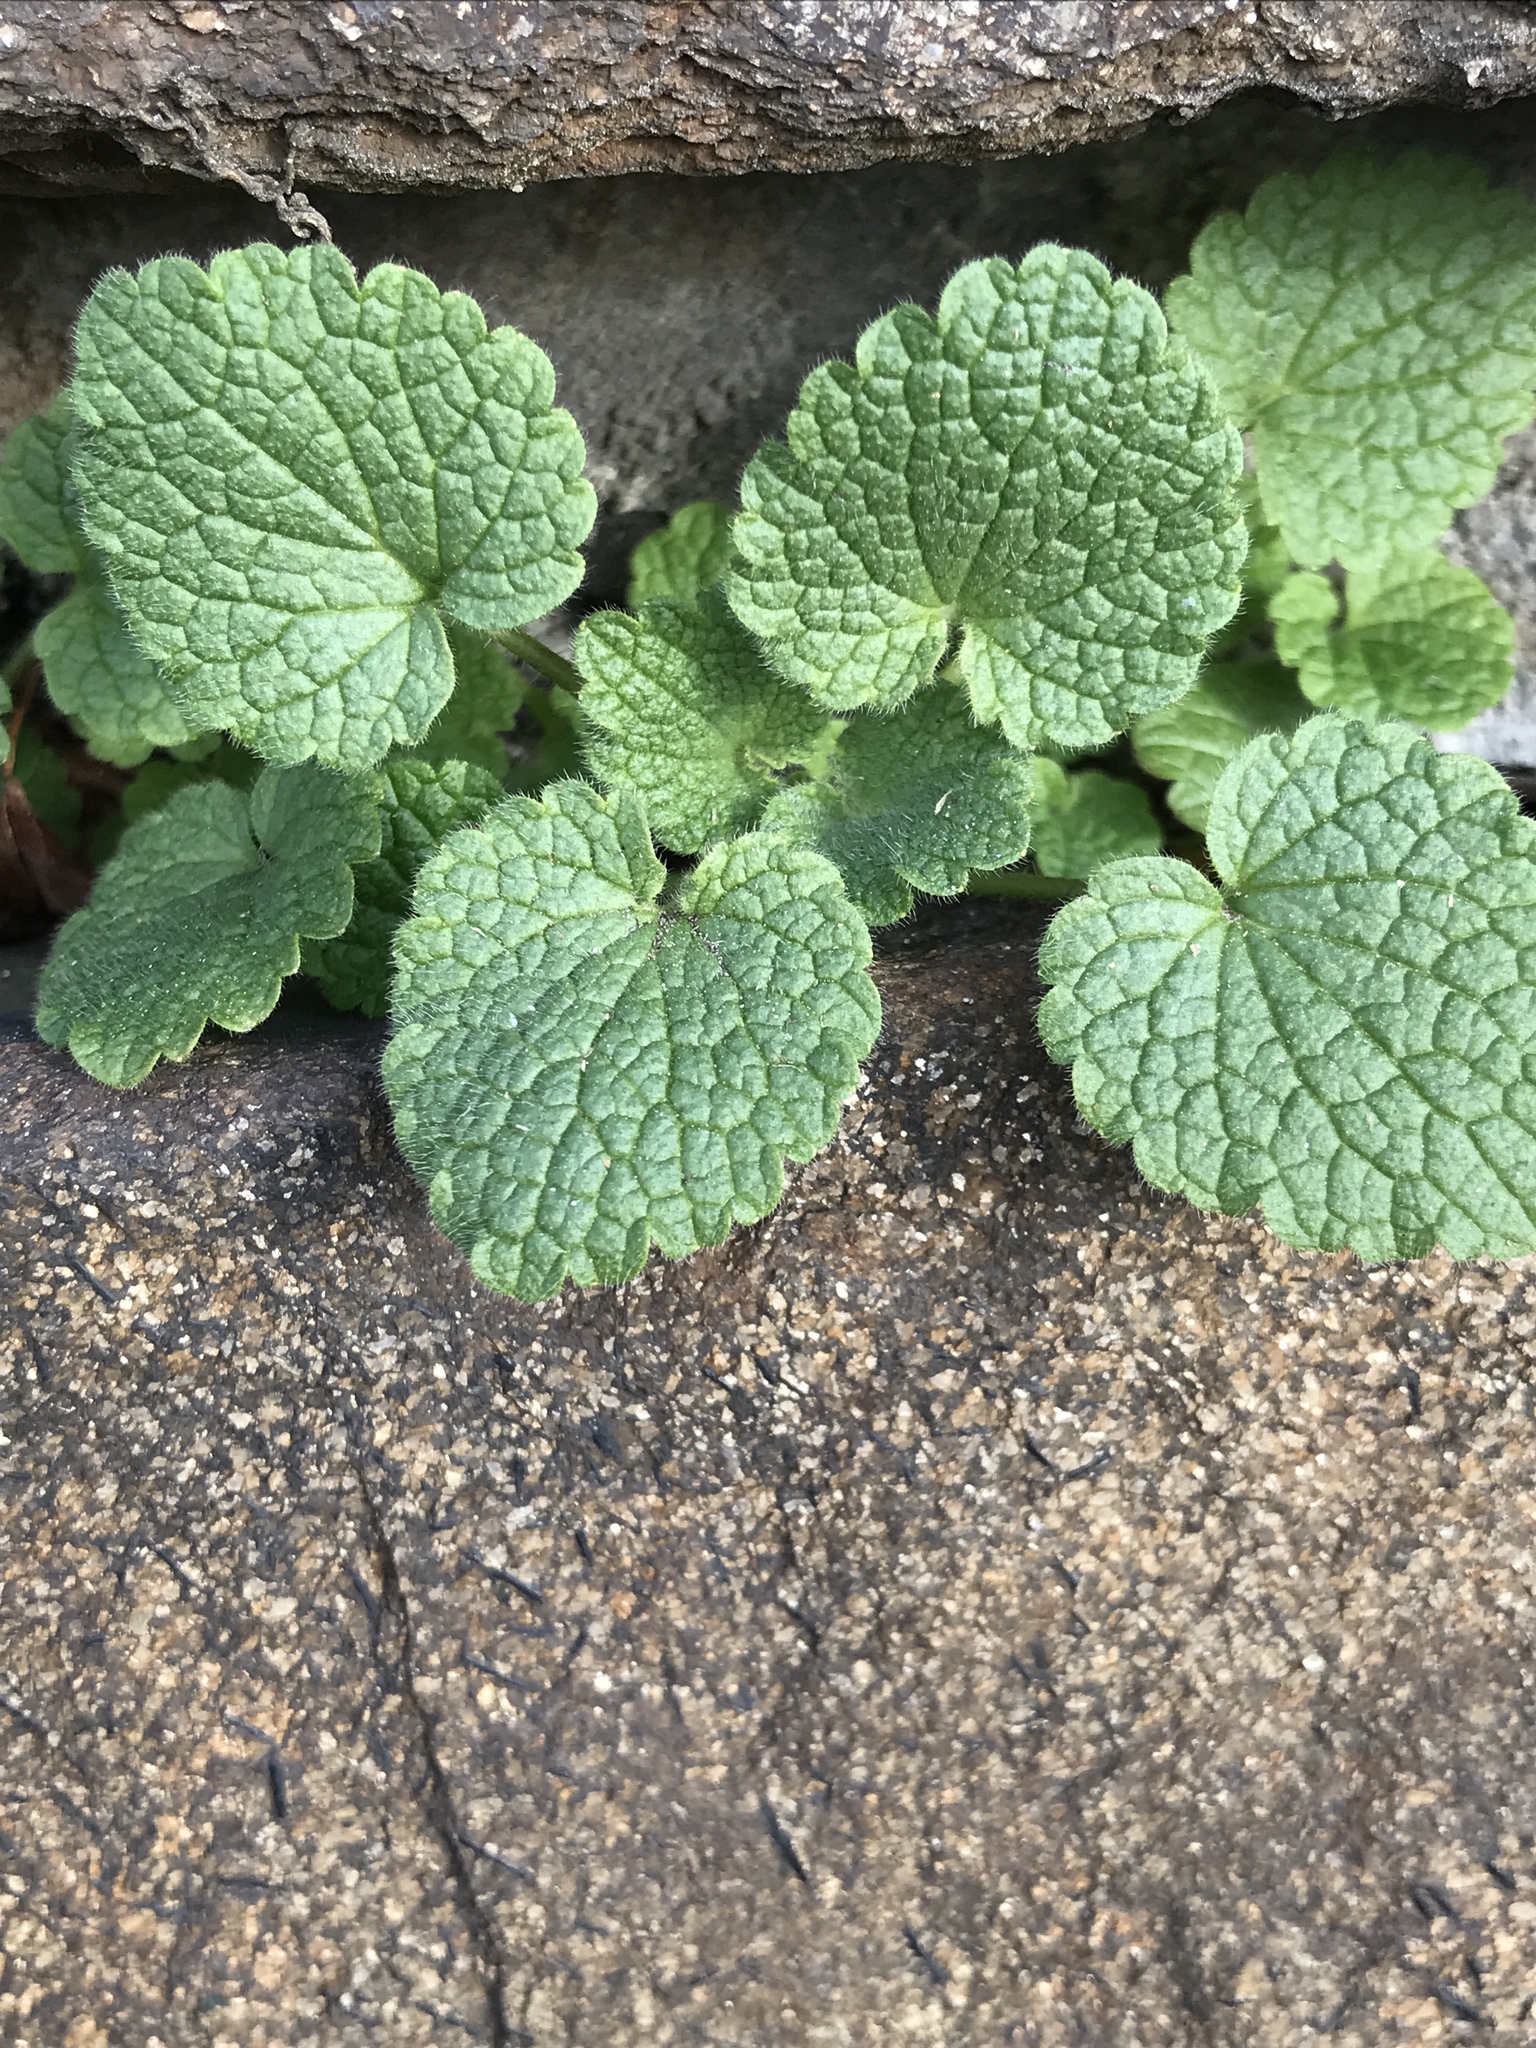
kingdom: Plantae
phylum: Tracheophyta
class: Magnoliopsida
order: Lamiales
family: Lamiaceae
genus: Lamium
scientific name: Lamium purpureum
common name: Red dead-nettle
